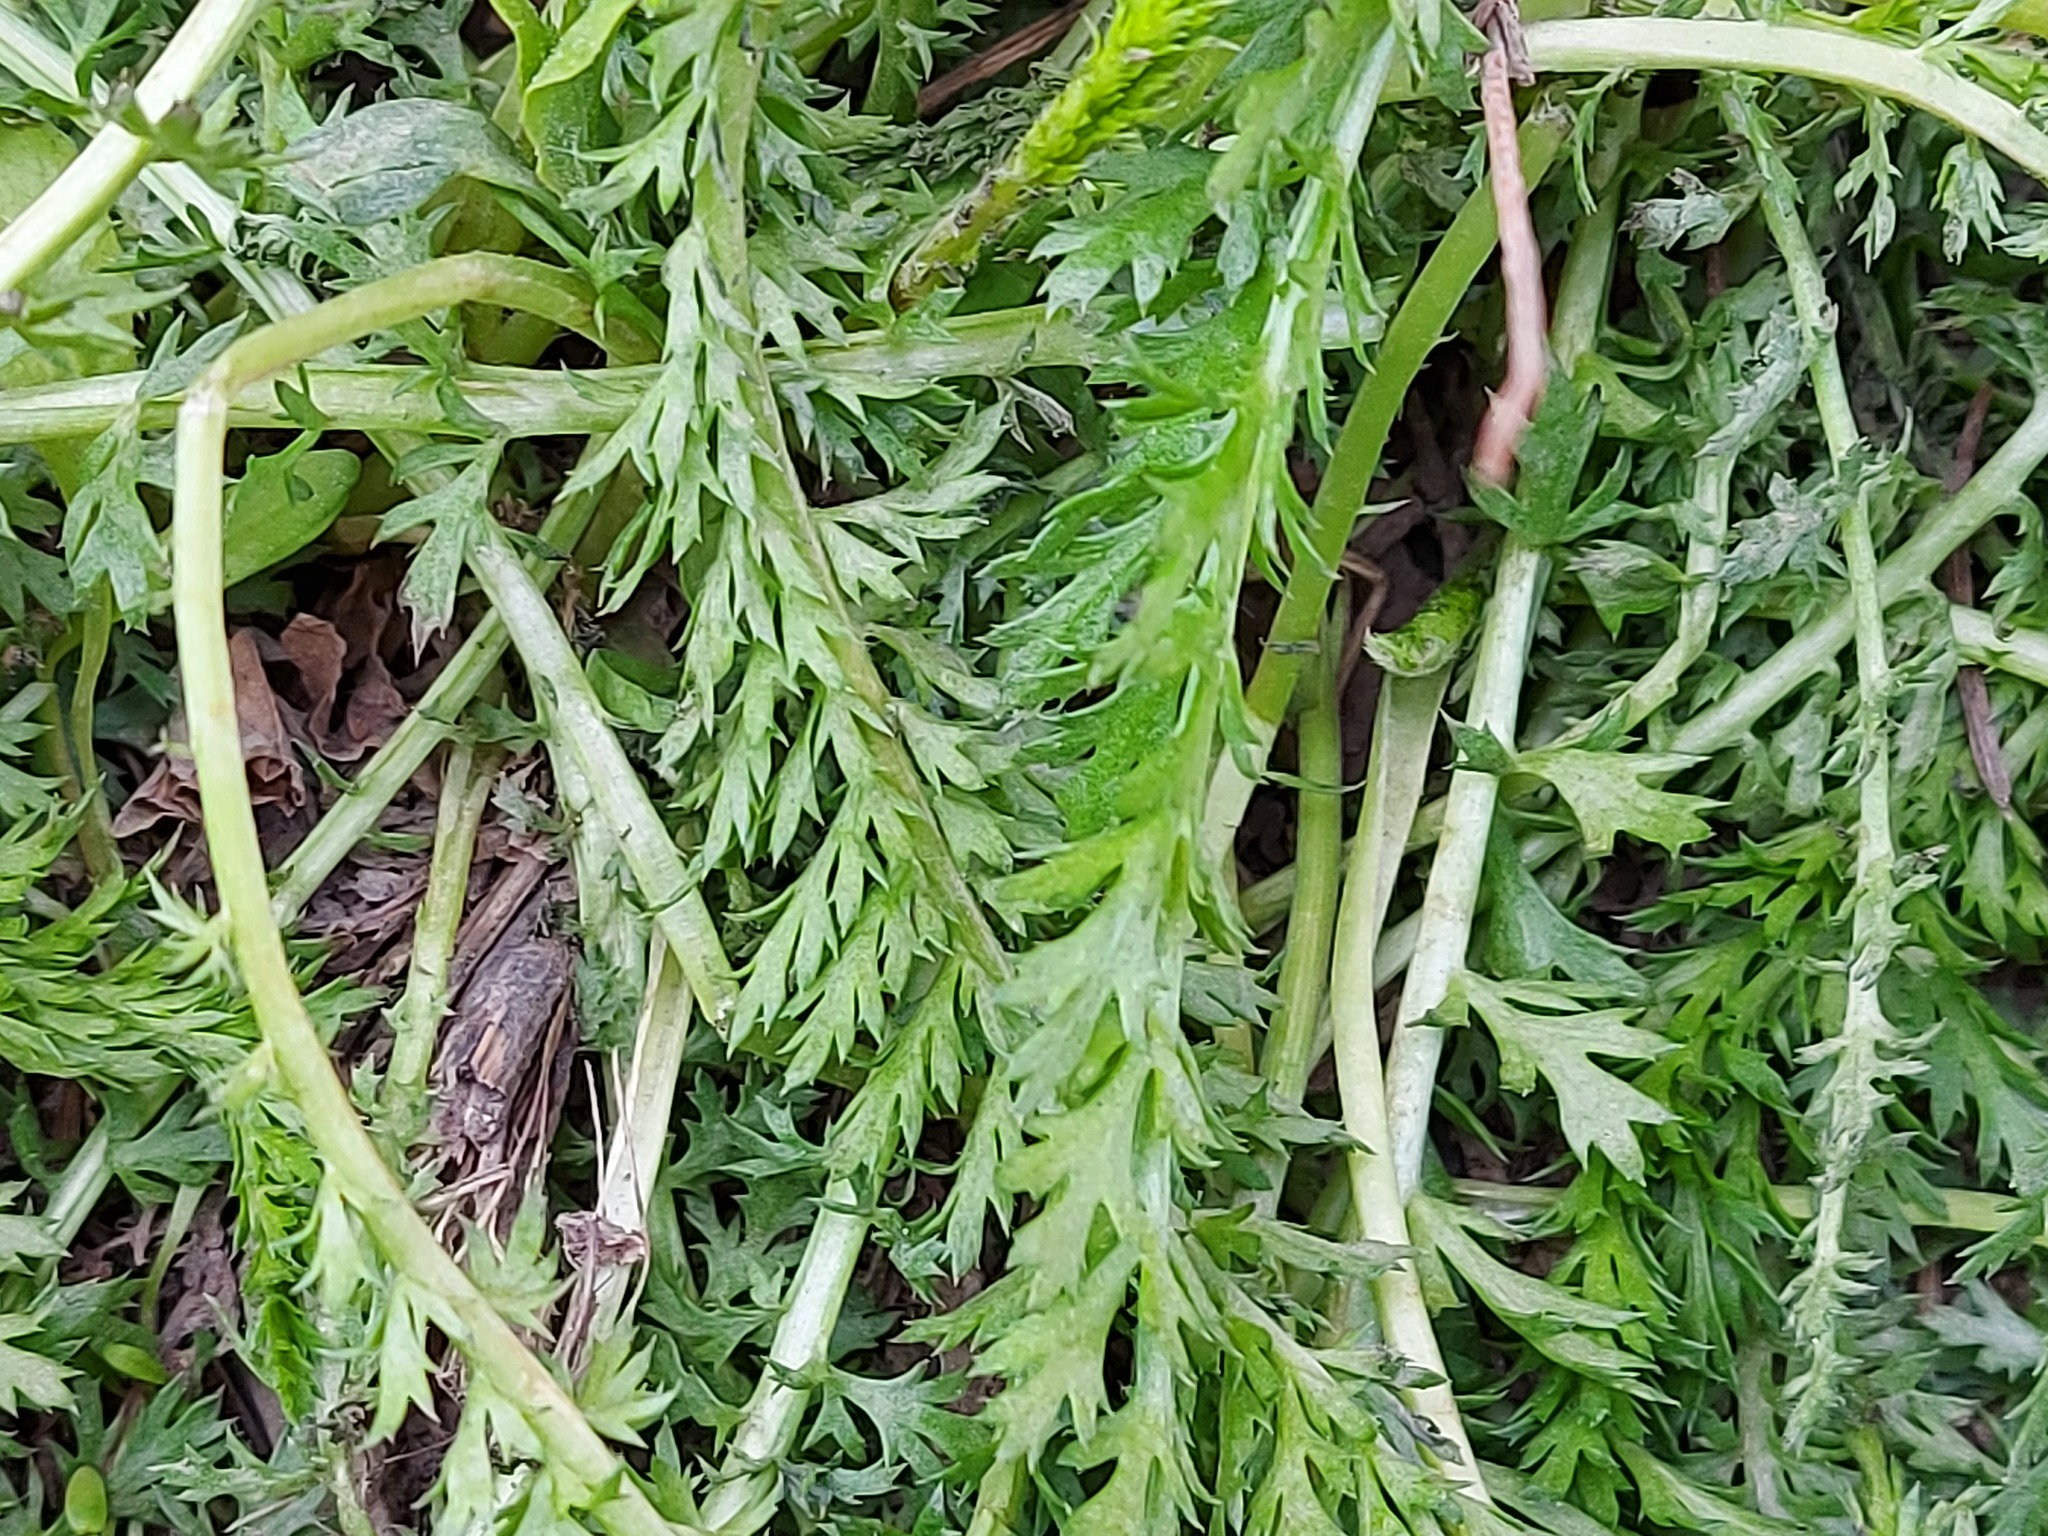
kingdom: Plantae
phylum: Tracheophyta
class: Magnoliopsida
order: Asterales
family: Asteraceae
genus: Achillea
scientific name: Achillea millefolium
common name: Yarrow
